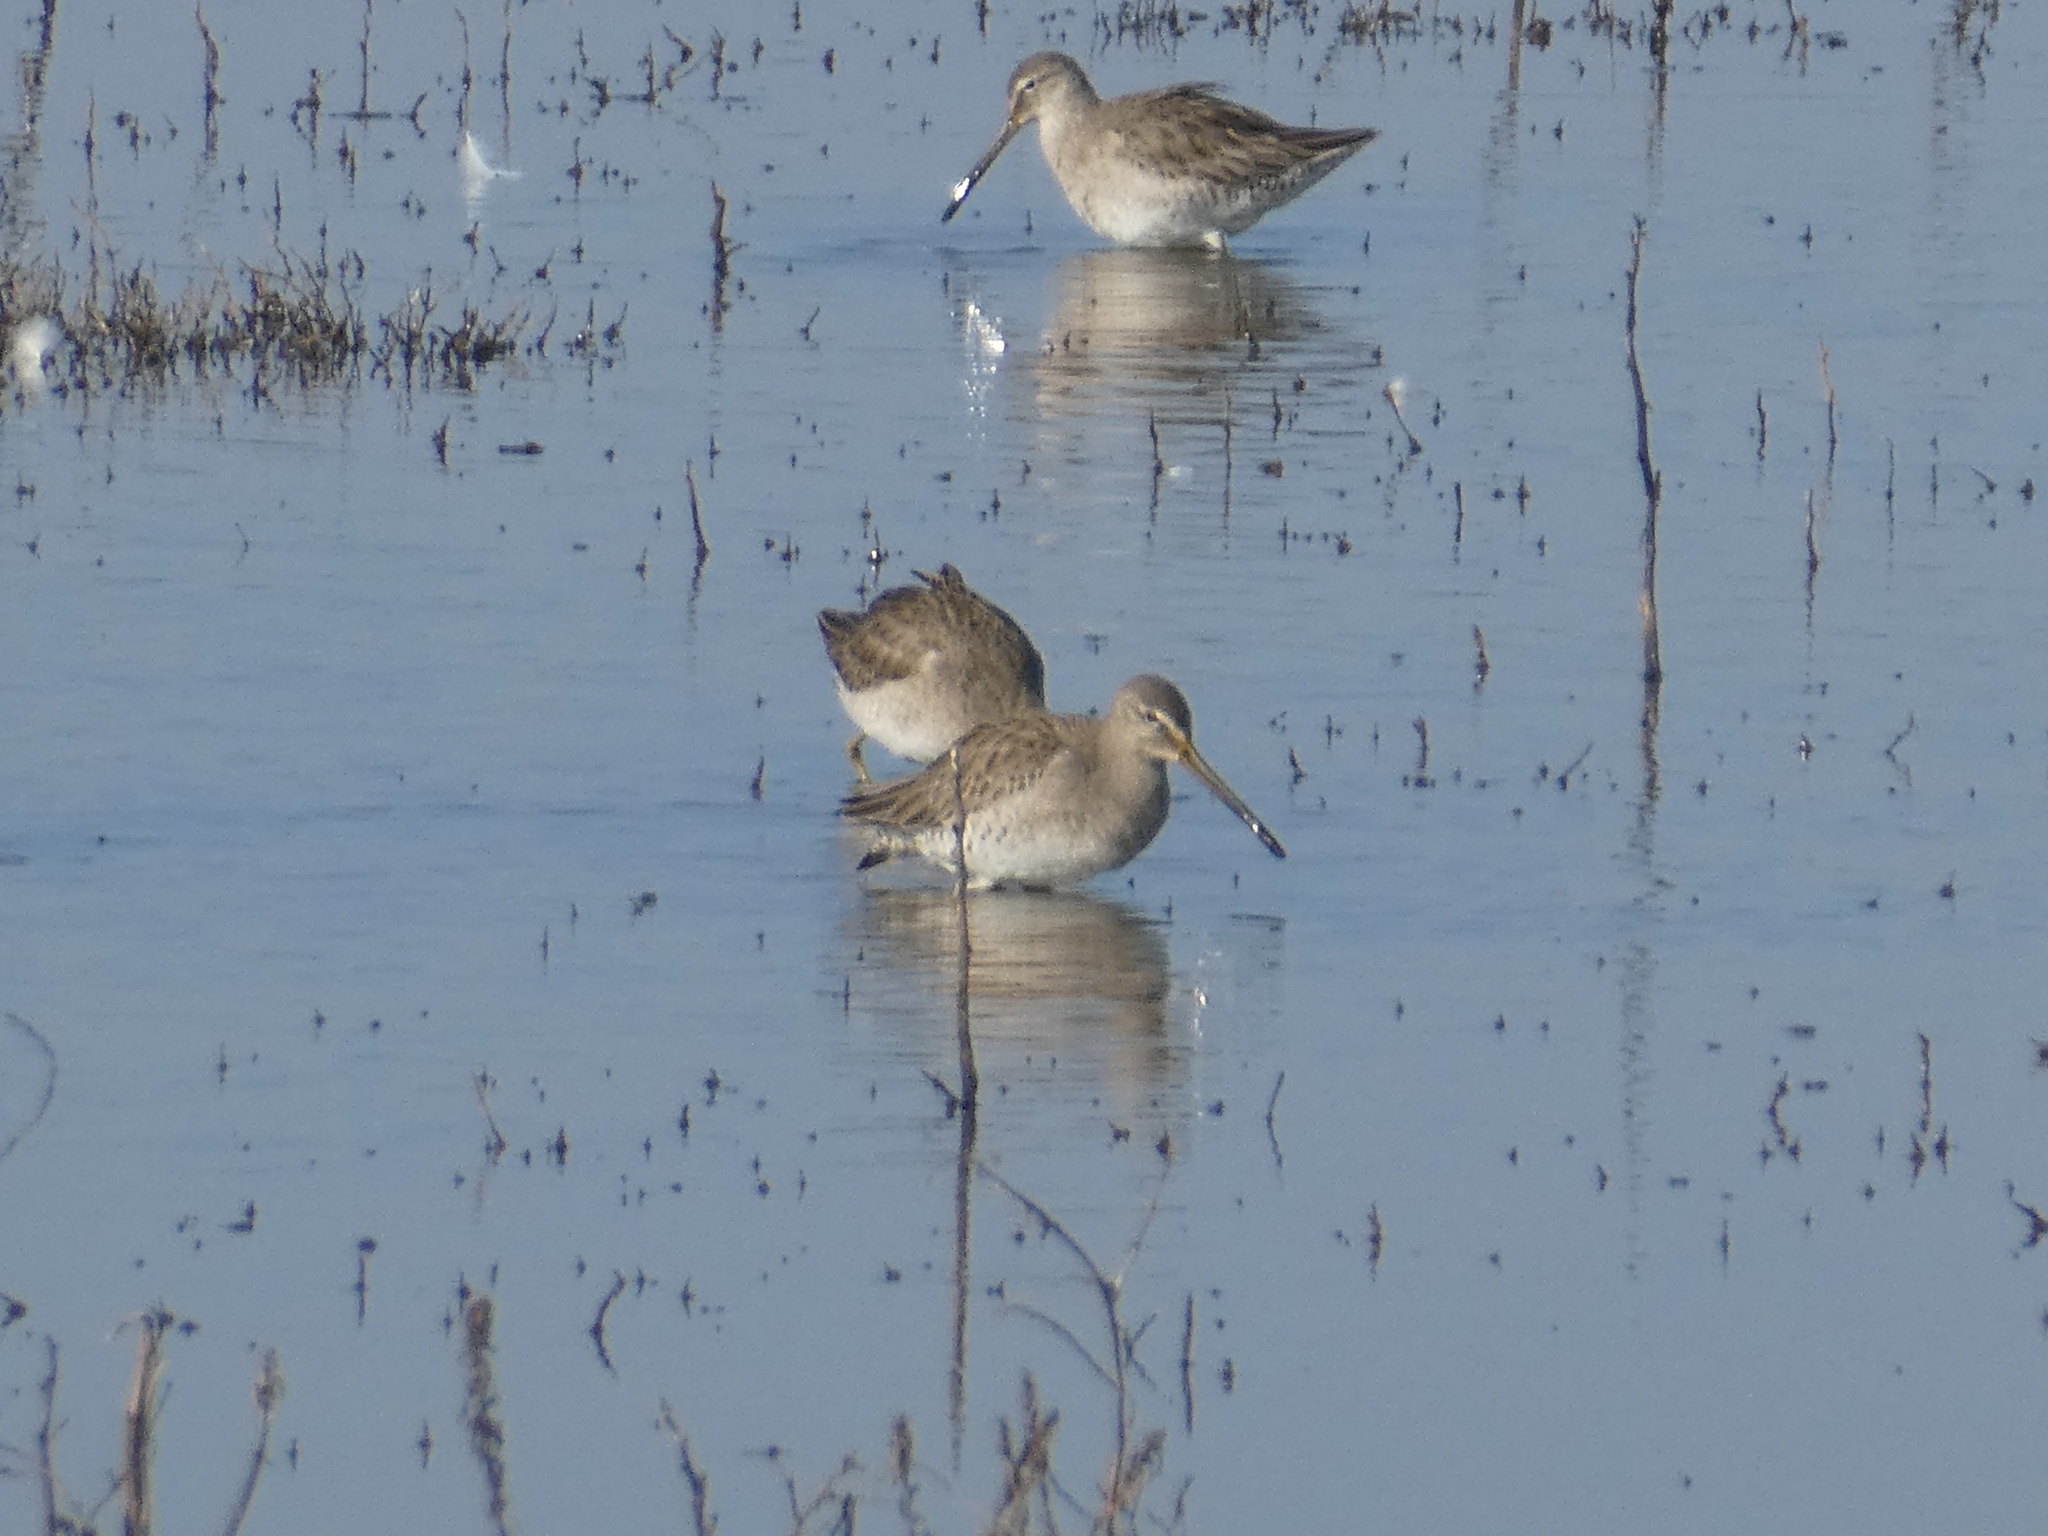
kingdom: Animalia
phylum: Chordata
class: Aves
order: Charadriiformes
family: Scolopacidae
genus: Limnodromus
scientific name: Limnodromus scolopaceus
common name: Long-billed dowitcher
